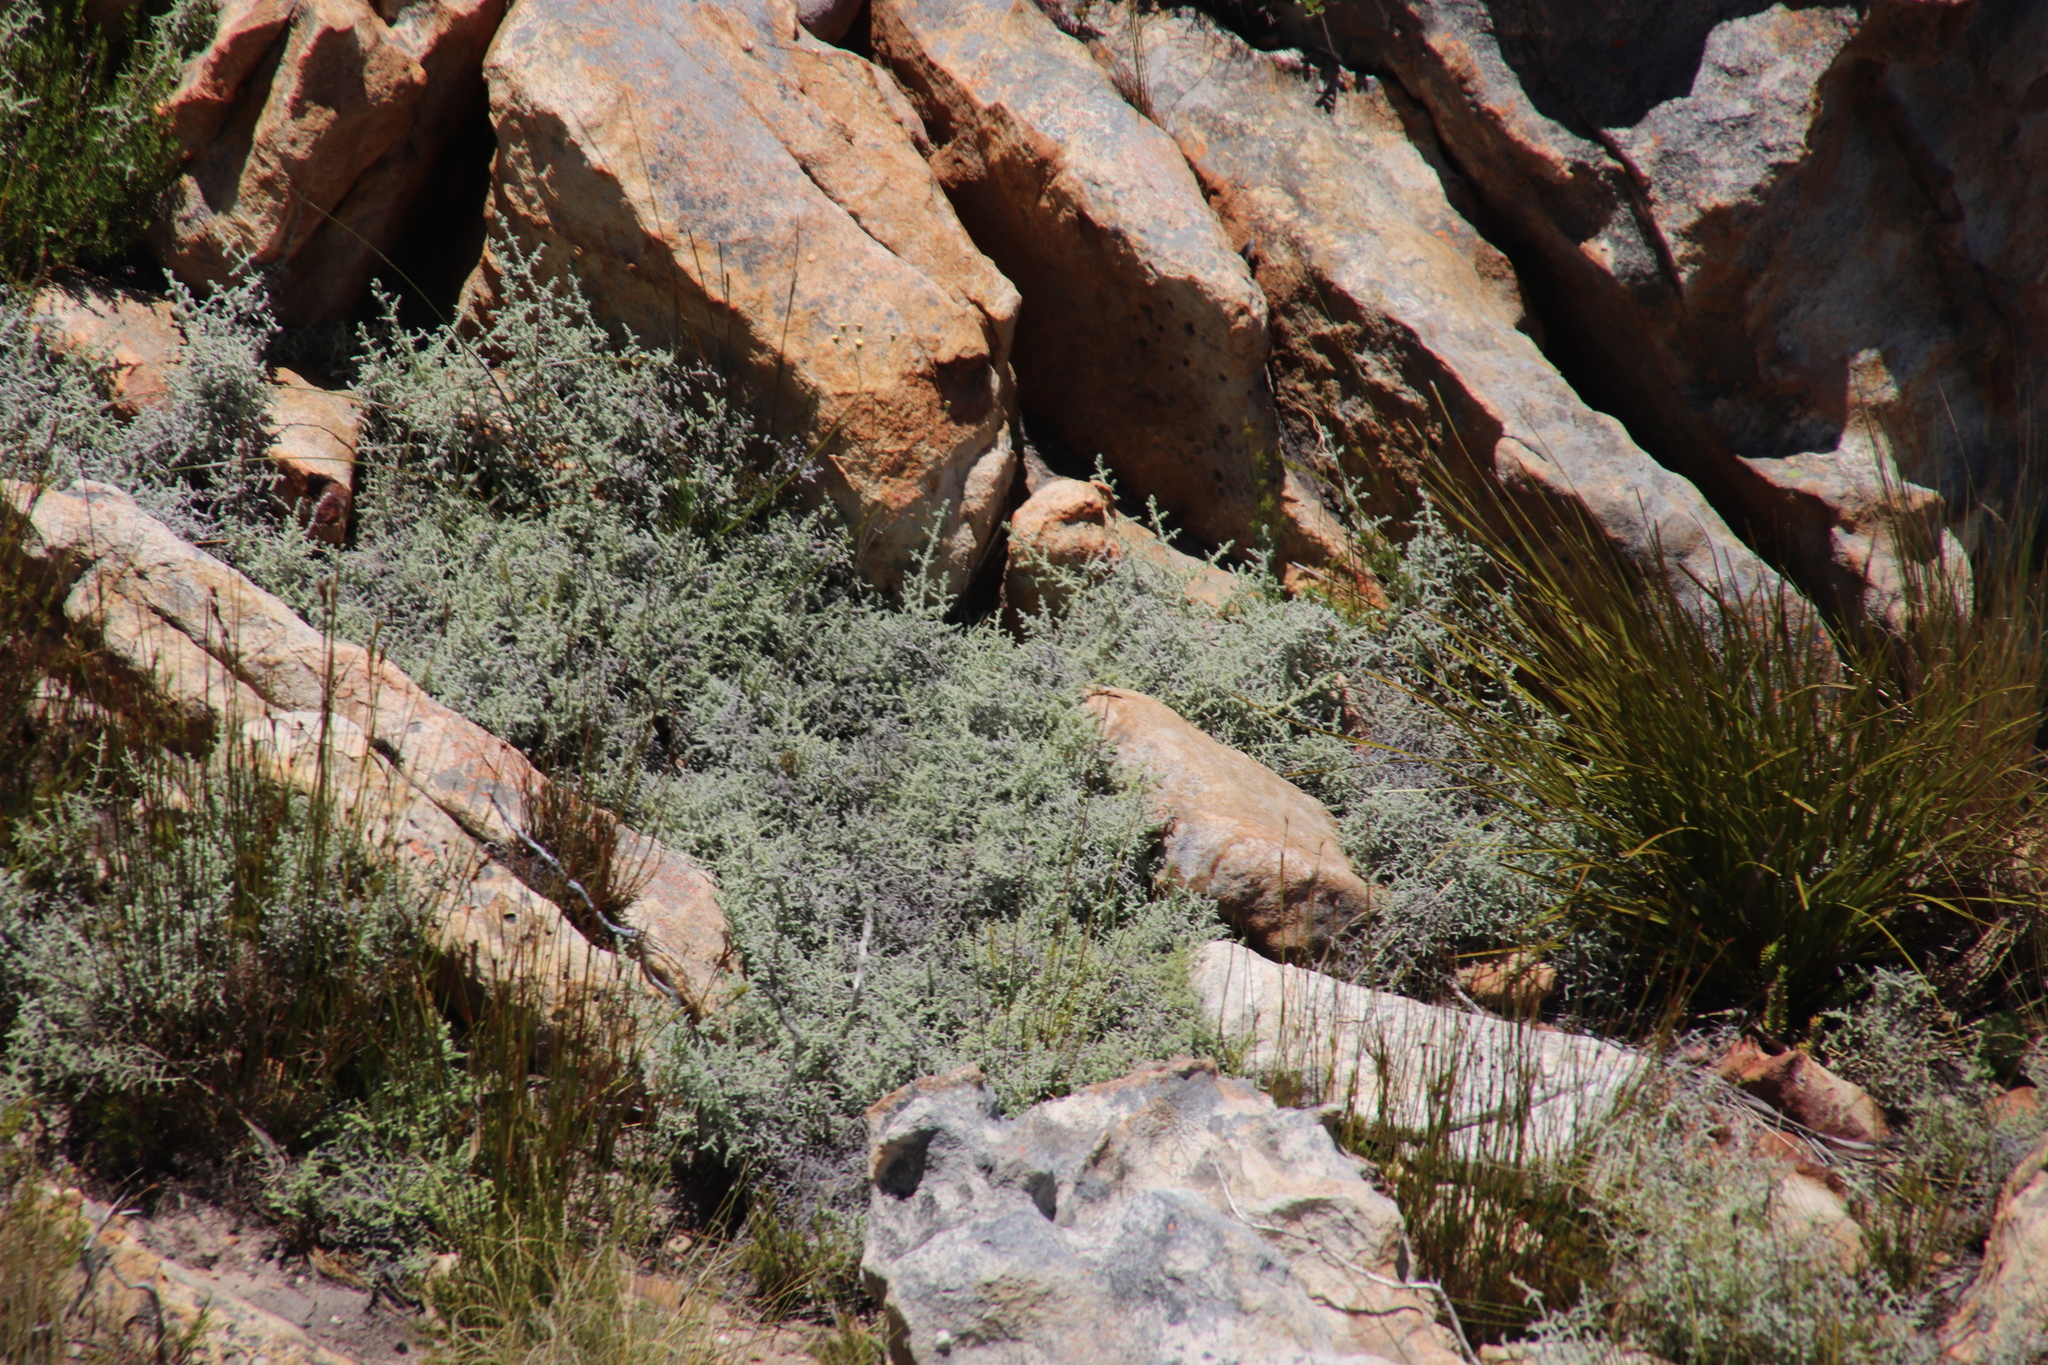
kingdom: Plantae
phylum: Tracheophyta
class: Magnoliopsida
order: Asterales
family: Asteraceae
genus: Seriphium
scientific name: Seriphium plumosum
